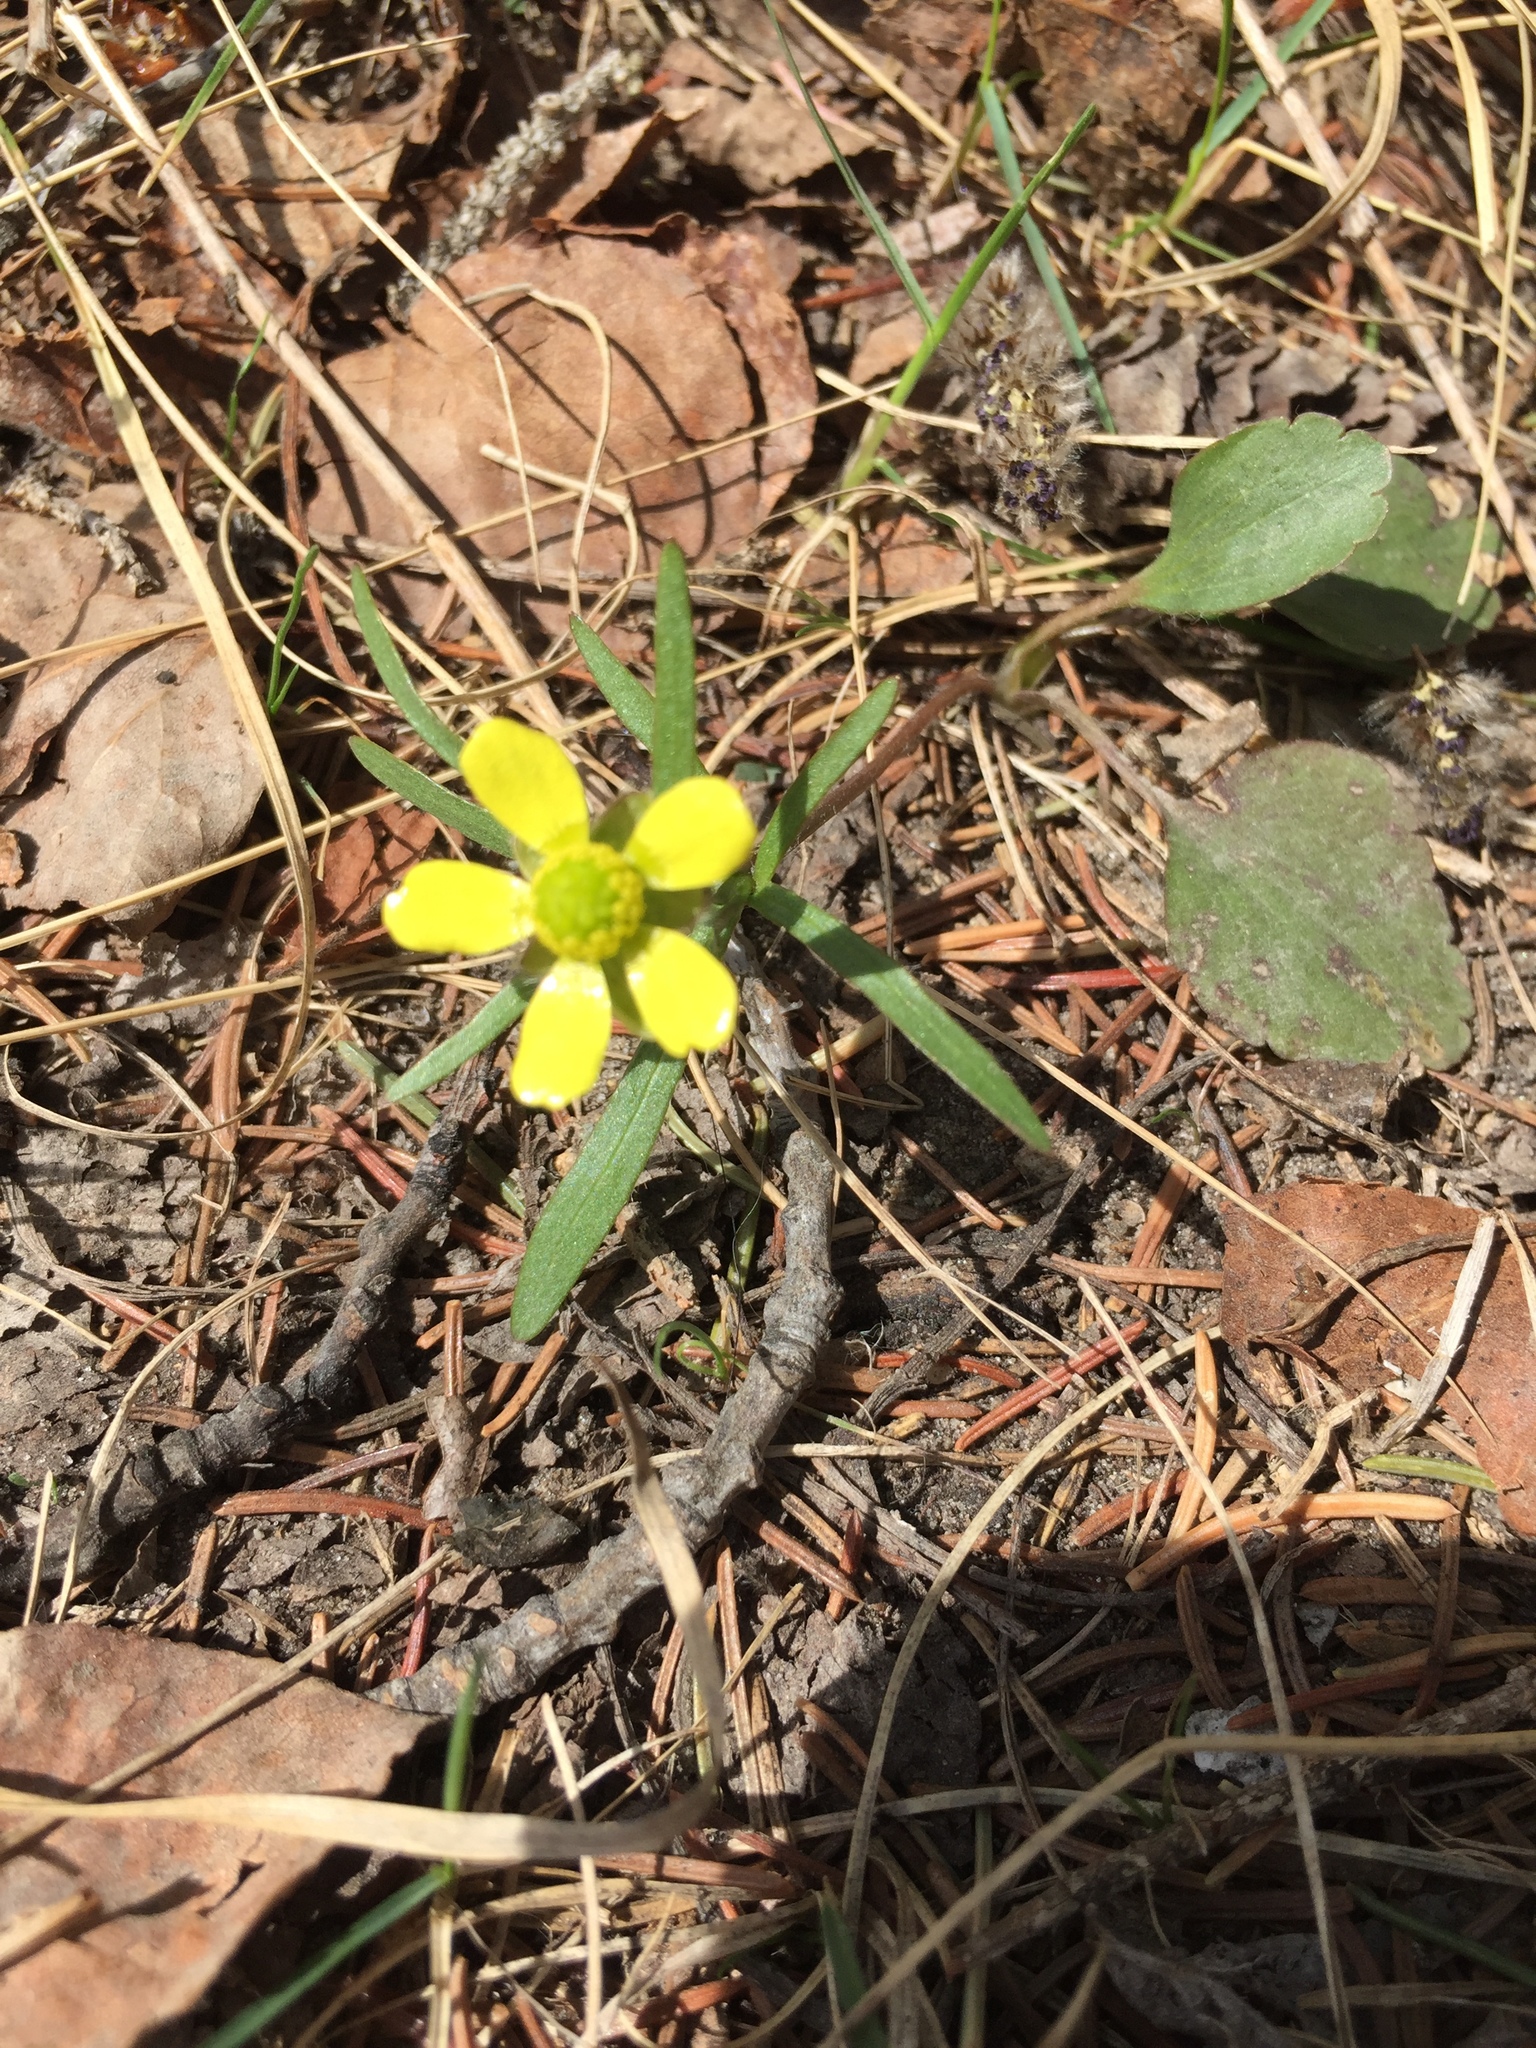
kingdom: Plantae
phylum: Tracheophyta
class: Magnoliopsida
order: Ranunculales
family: Ranunculaceae
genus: Ranunculus
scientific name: Ranunculus rhomboideus
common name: Prairie buttercup
